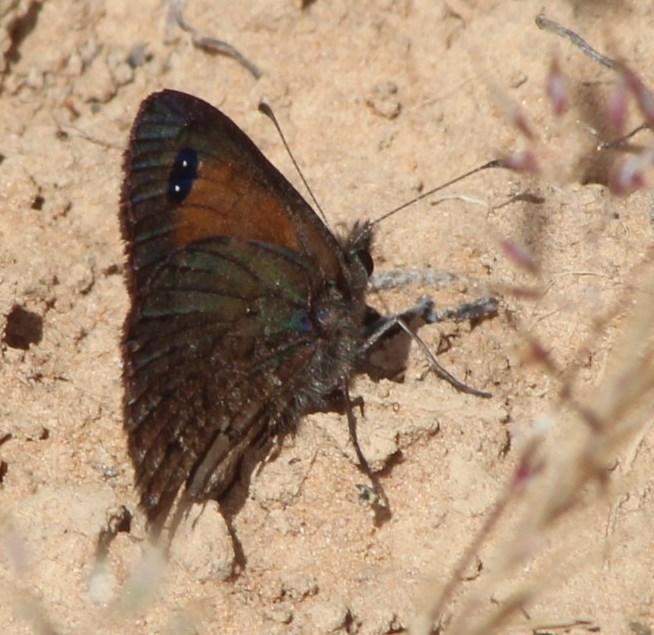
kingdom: Animalia
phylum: Arthropoda
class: Insecta
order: Lepidoptera
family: Nymphalidae
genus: Stygionympha
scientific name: Stygionympha irrorata
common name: Karoo hillside brown
